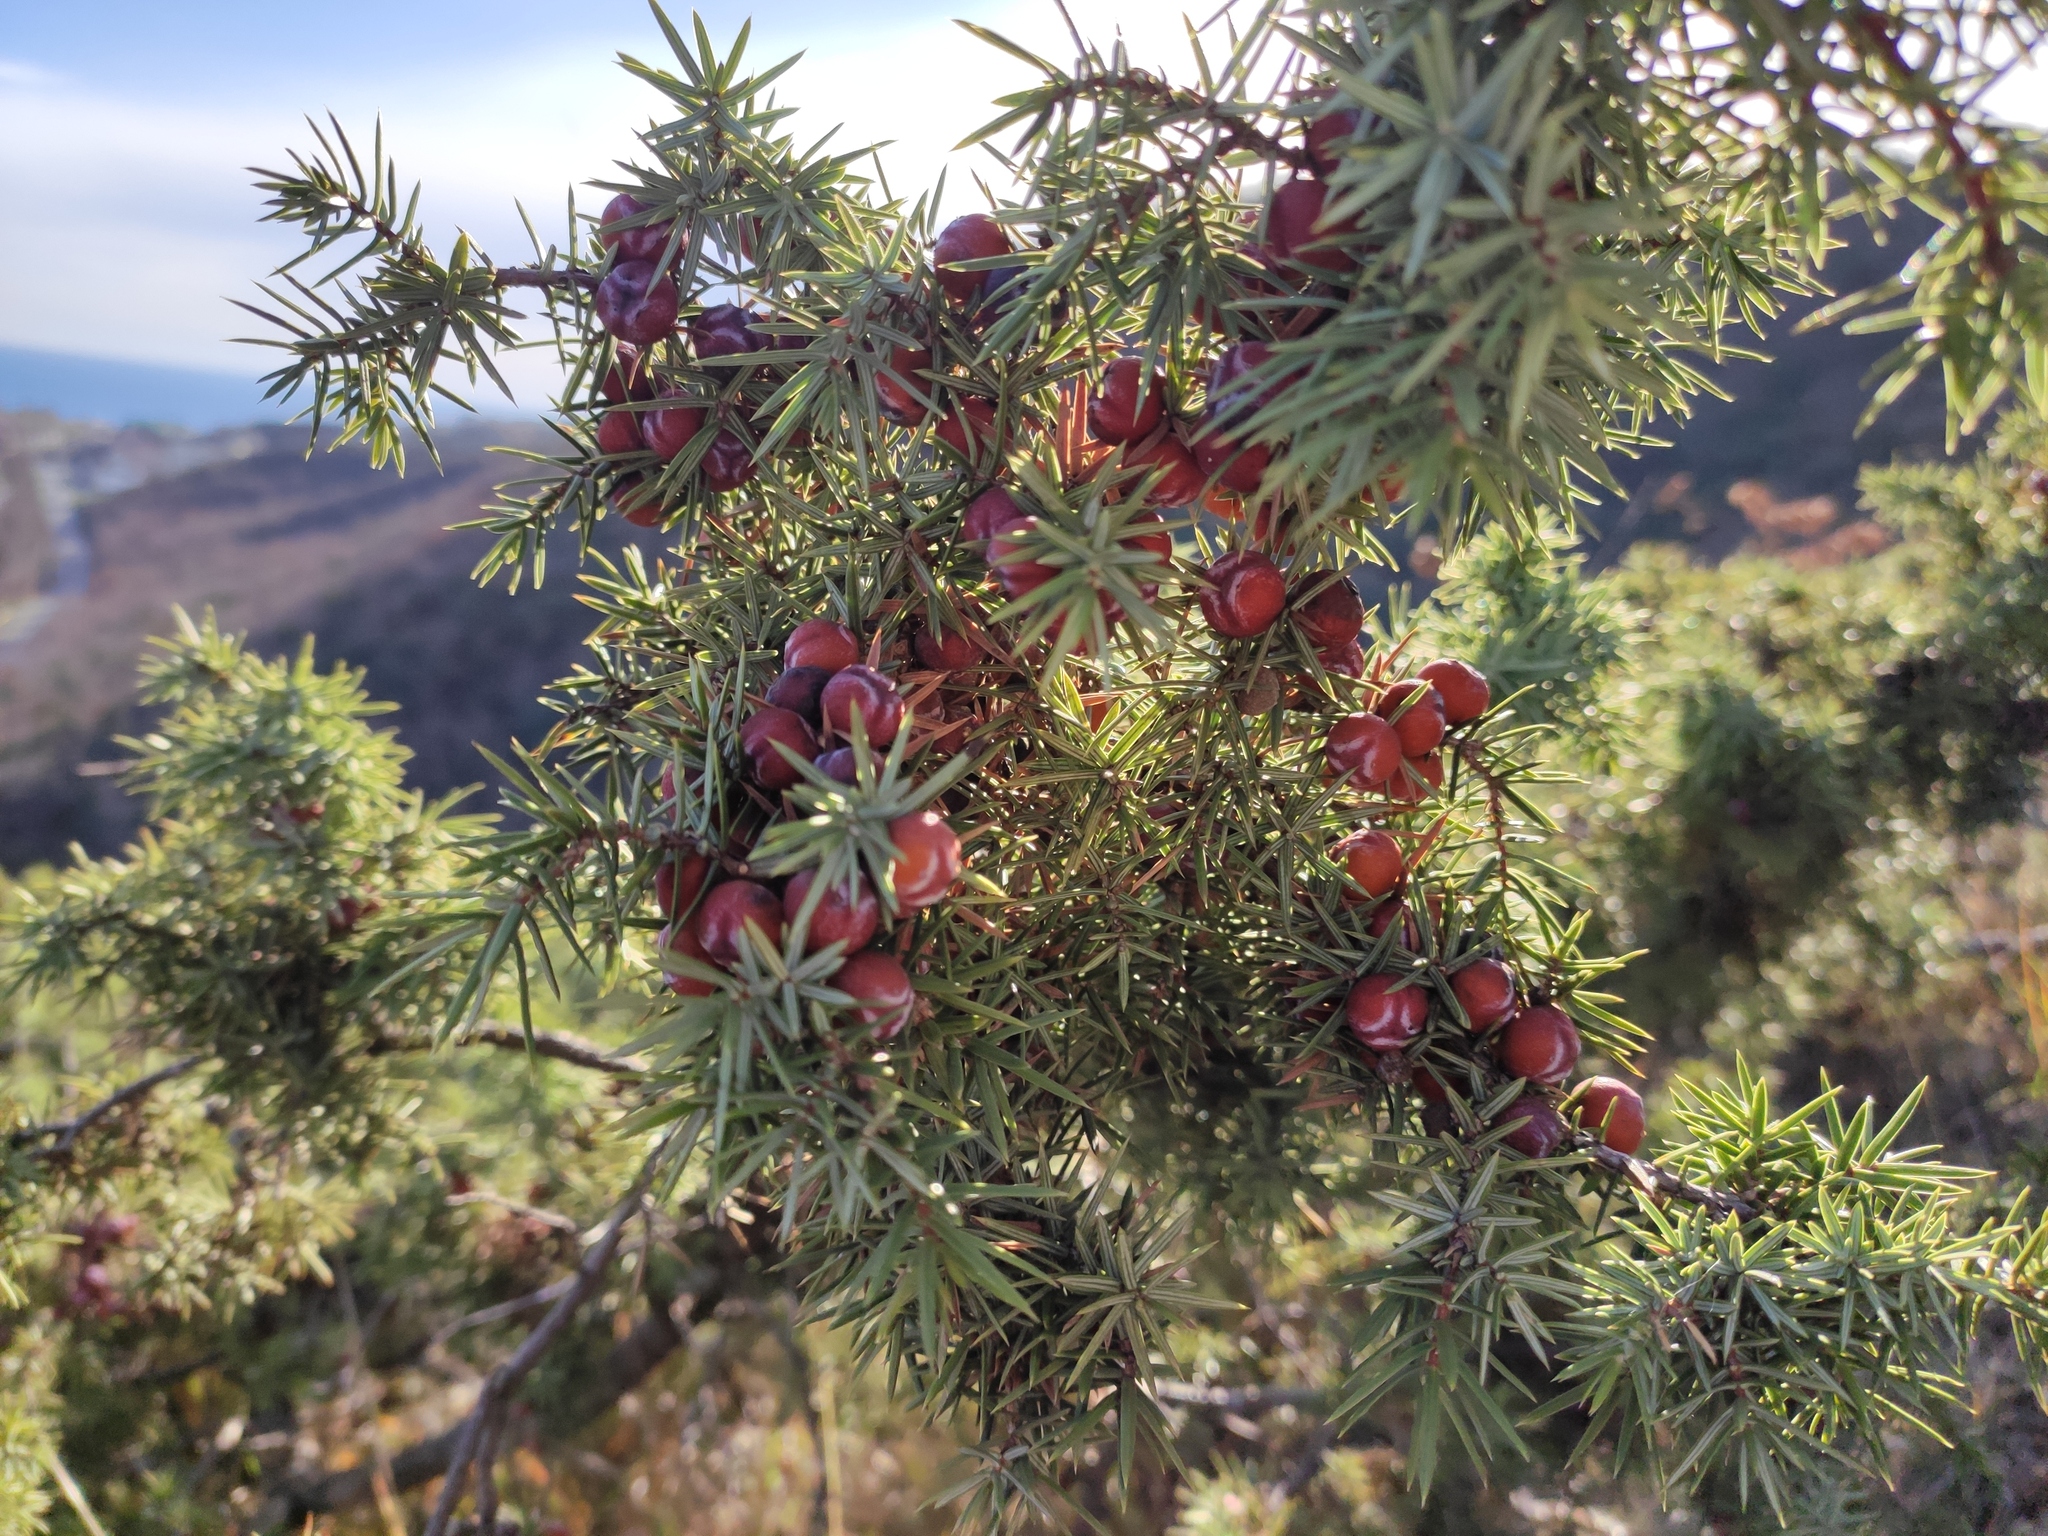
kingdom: Plantae
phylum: Tracheophyta
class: Pinopsida
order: Pinales
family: Cupressaceae
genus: Juniperus
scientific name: Juniperus oxycedrus
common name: Prickly juniper
